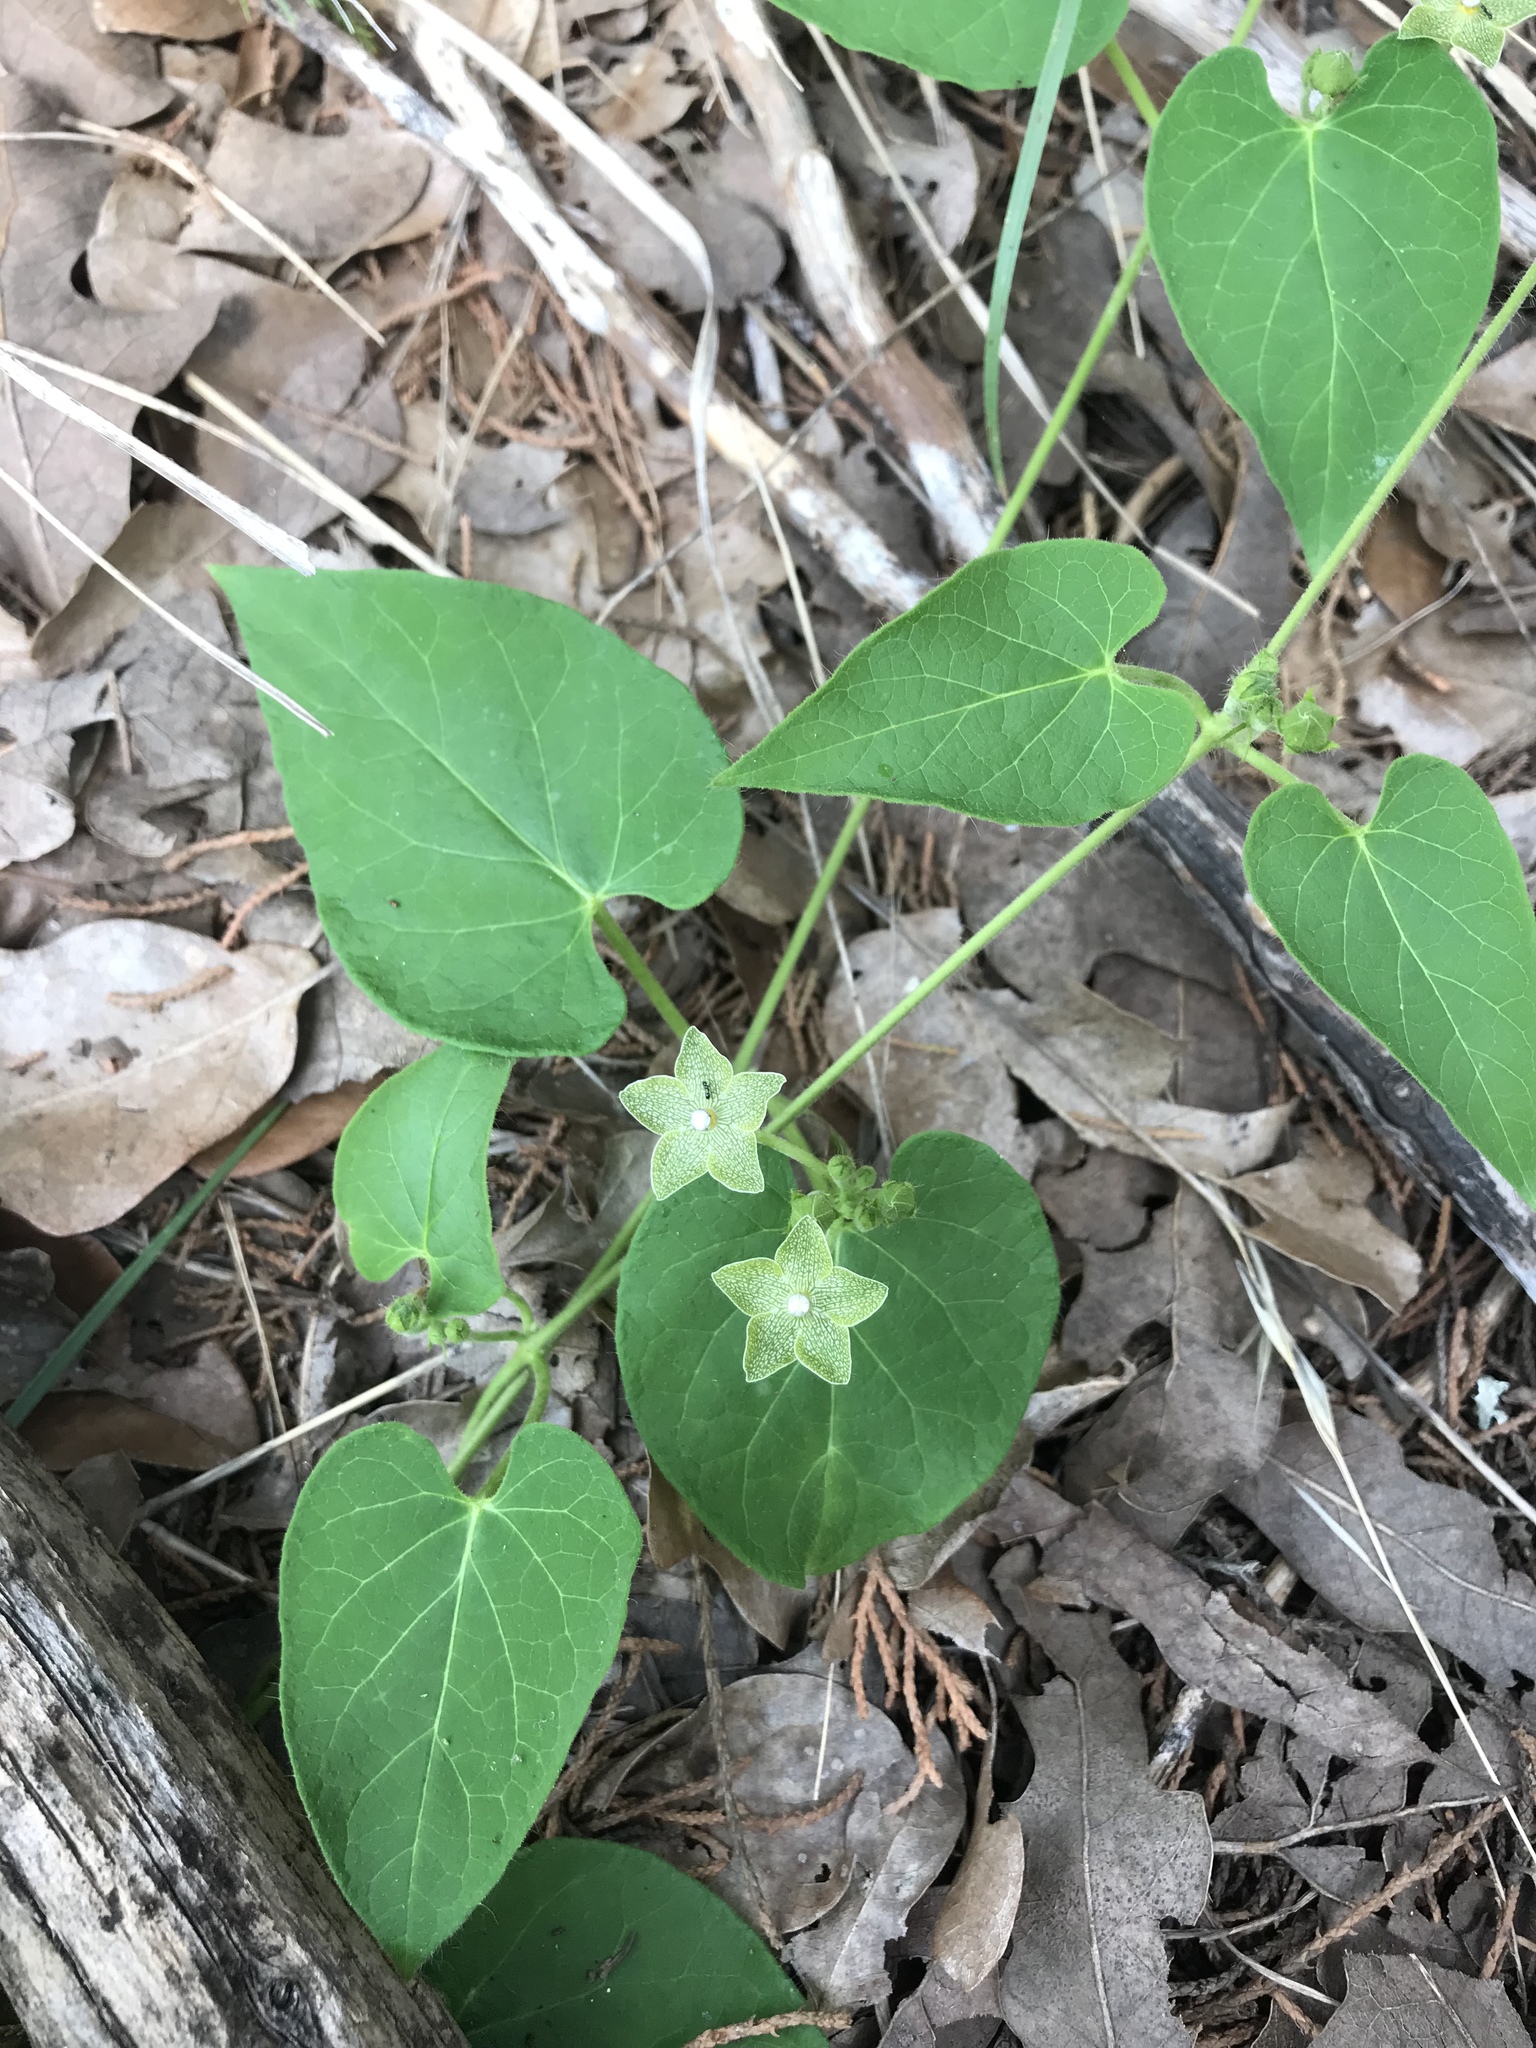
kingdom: Plantae
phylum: Tracheophyta
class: Magnoliopsida
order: Gentianales
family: Apocynaceae
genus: Dictyanthus
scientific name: Dictyanthus reticulatus
